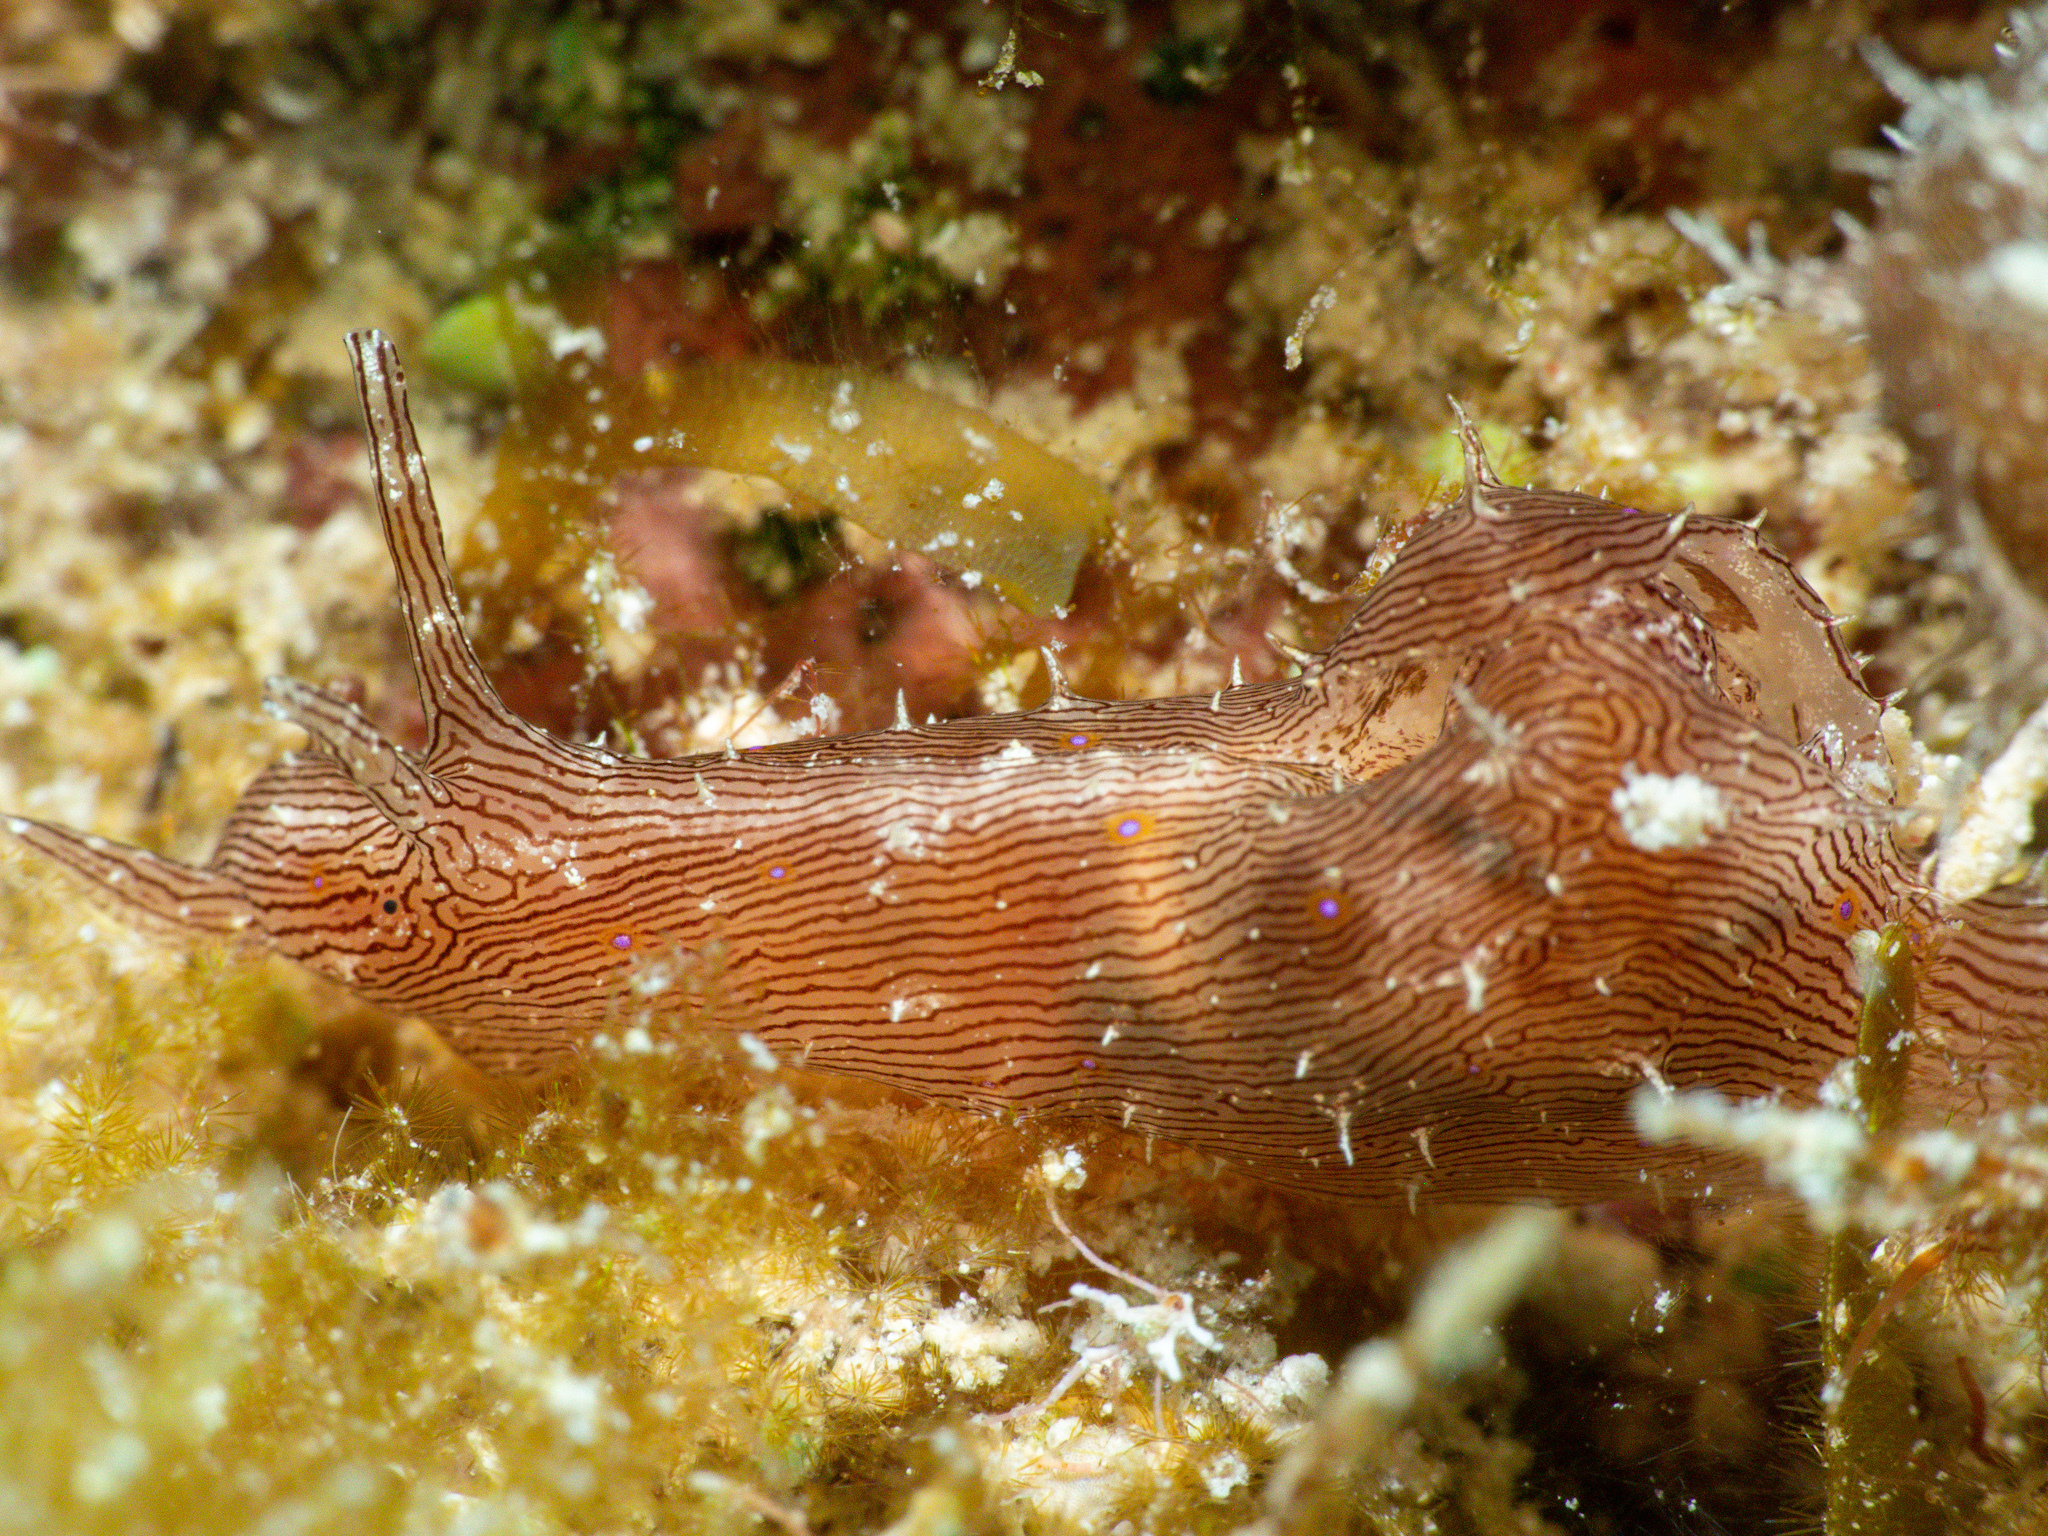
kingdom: Animalia
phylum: Mollusca
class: Gastropoda
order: Aplysiida
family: Aplysiidae
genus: Stylocheilus
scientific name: Stylocheilus polyomma
